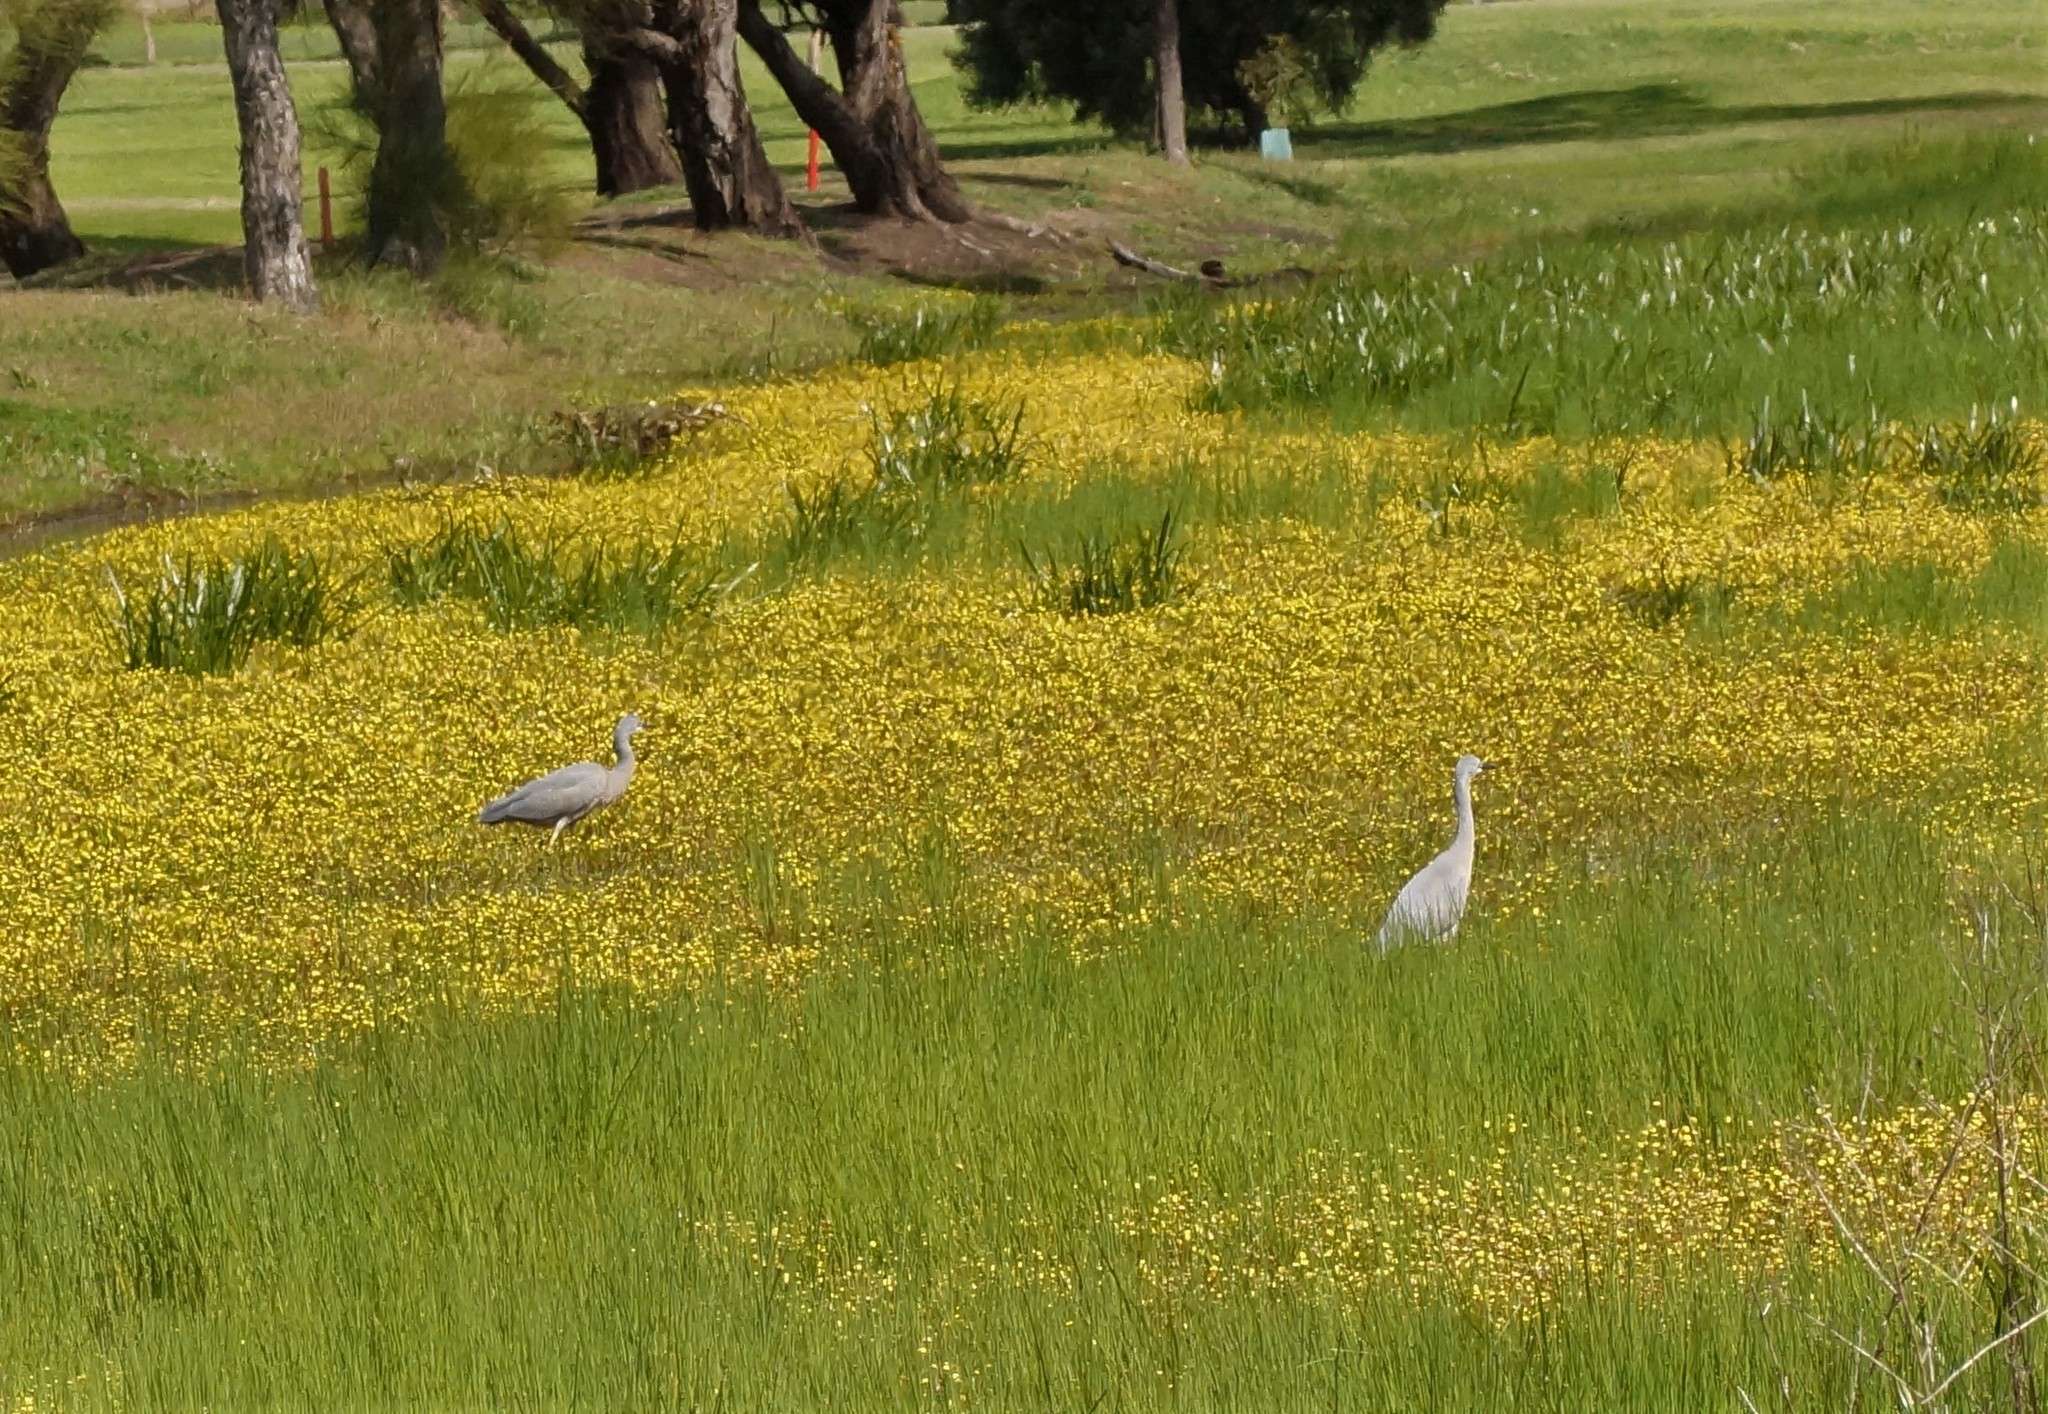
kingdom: Animalia
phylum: Chordata
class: Aves
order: Pelecaniformes
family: Ardeidae
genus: Egretta
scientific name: Egretta novaehollandiae
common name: White-faced heron
